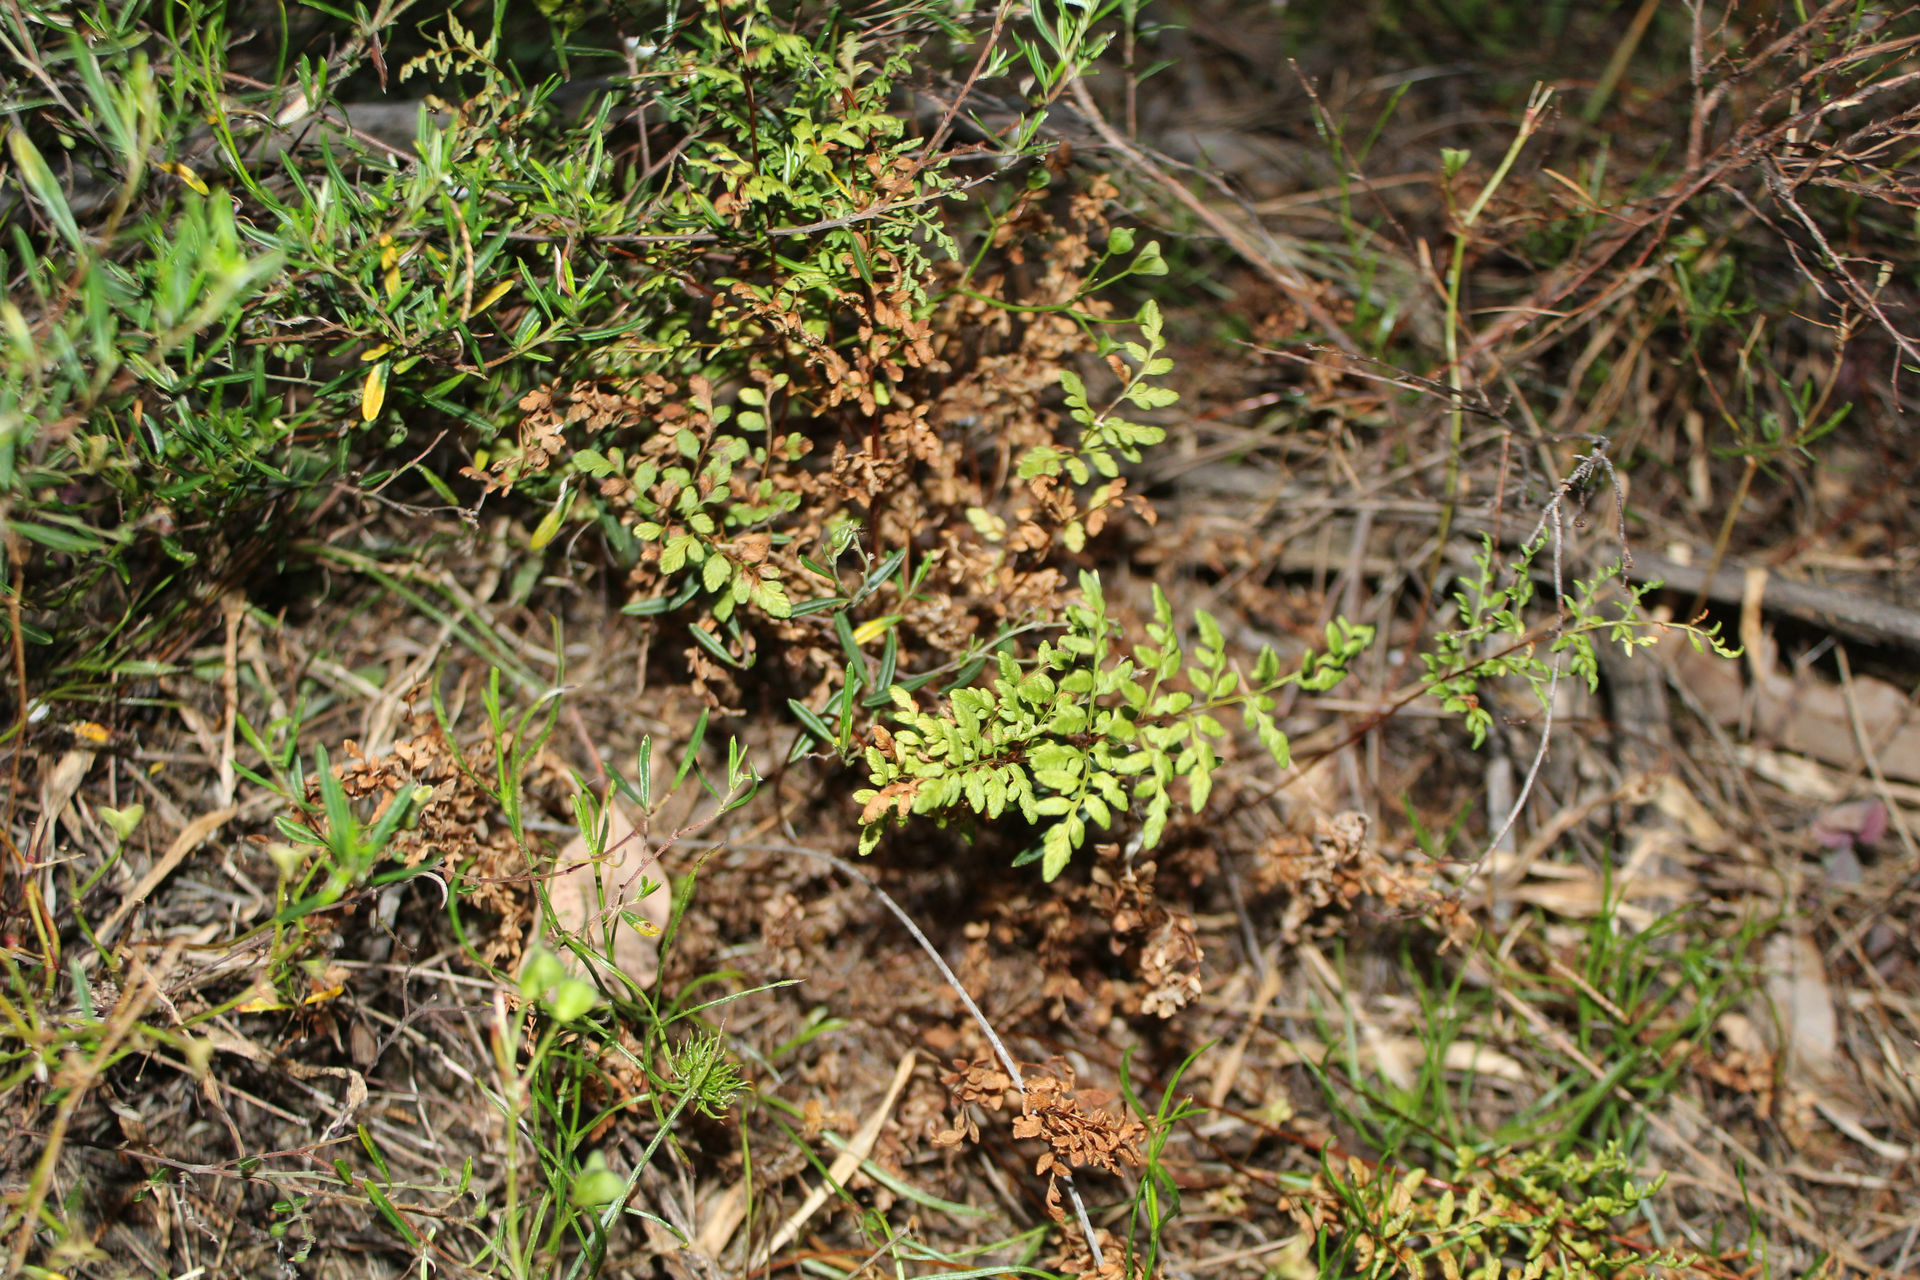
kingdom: Plantae
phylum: Tracheophyta
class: Polypodiopsida
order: Polypodiales
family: Pteridaceae
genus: Cheilanthes
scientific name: Cheilanthes austrotenuifolia
